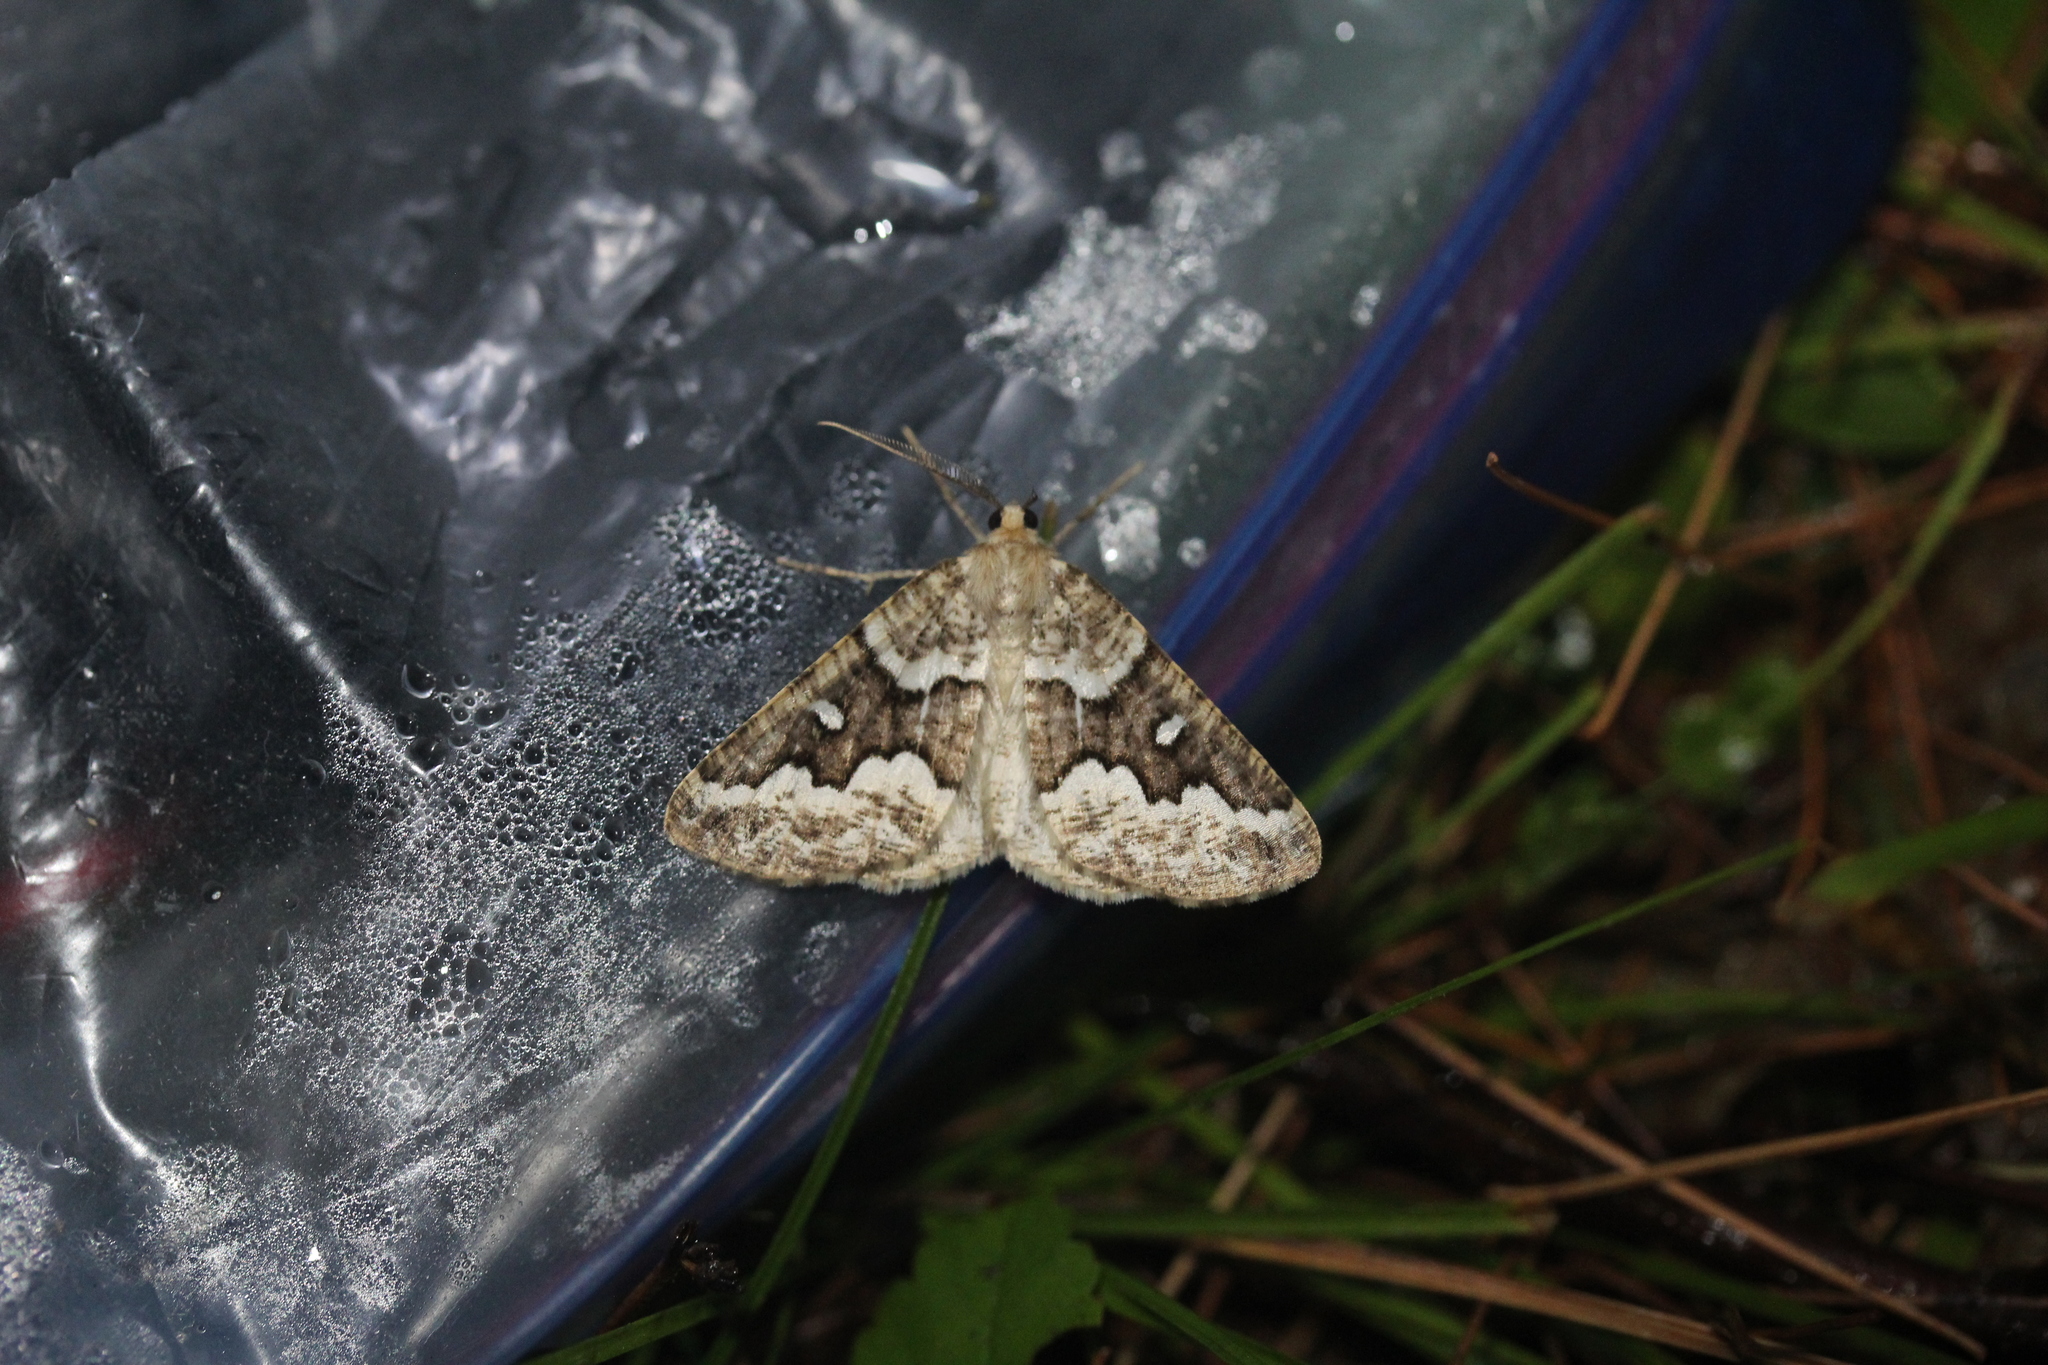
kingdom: Animalia
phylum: Arthropoda
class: Insecta
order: Lepidoptera
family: Geometridae
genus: Caripeta
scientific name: Caripeta divisata
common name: Gray spruce looper
